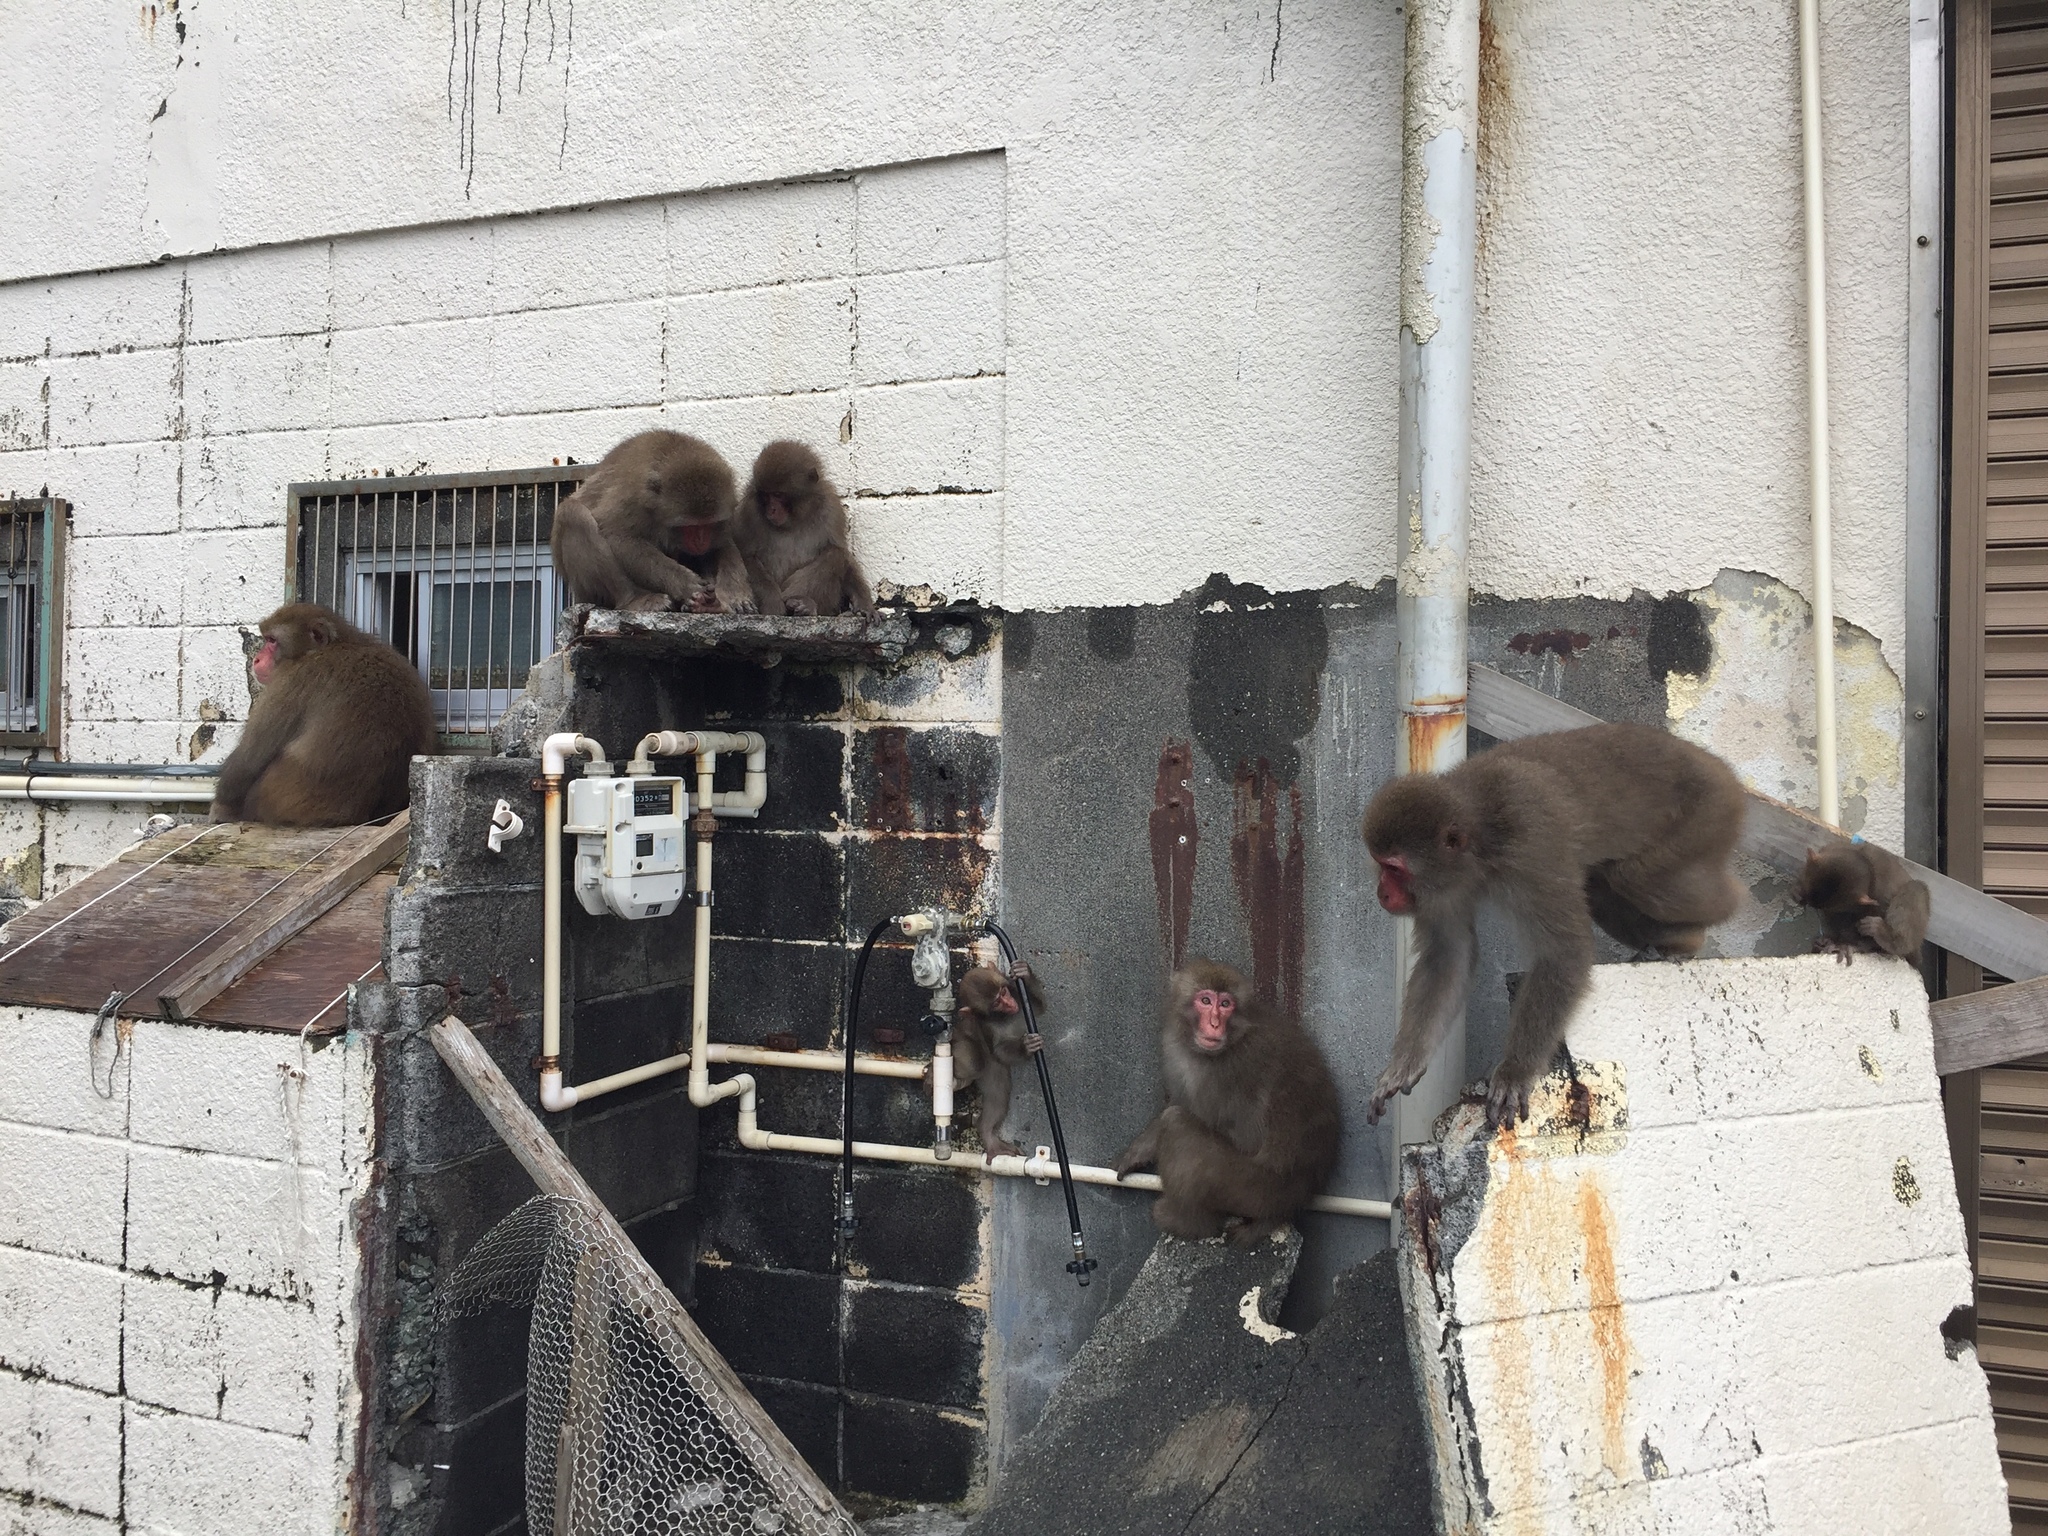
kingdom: Animalia
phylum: Chordata
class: Mammalia
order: Primates
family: Cercopithecidae
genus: Macaca
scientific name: Macaca fuscata
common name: Japanese macaque
